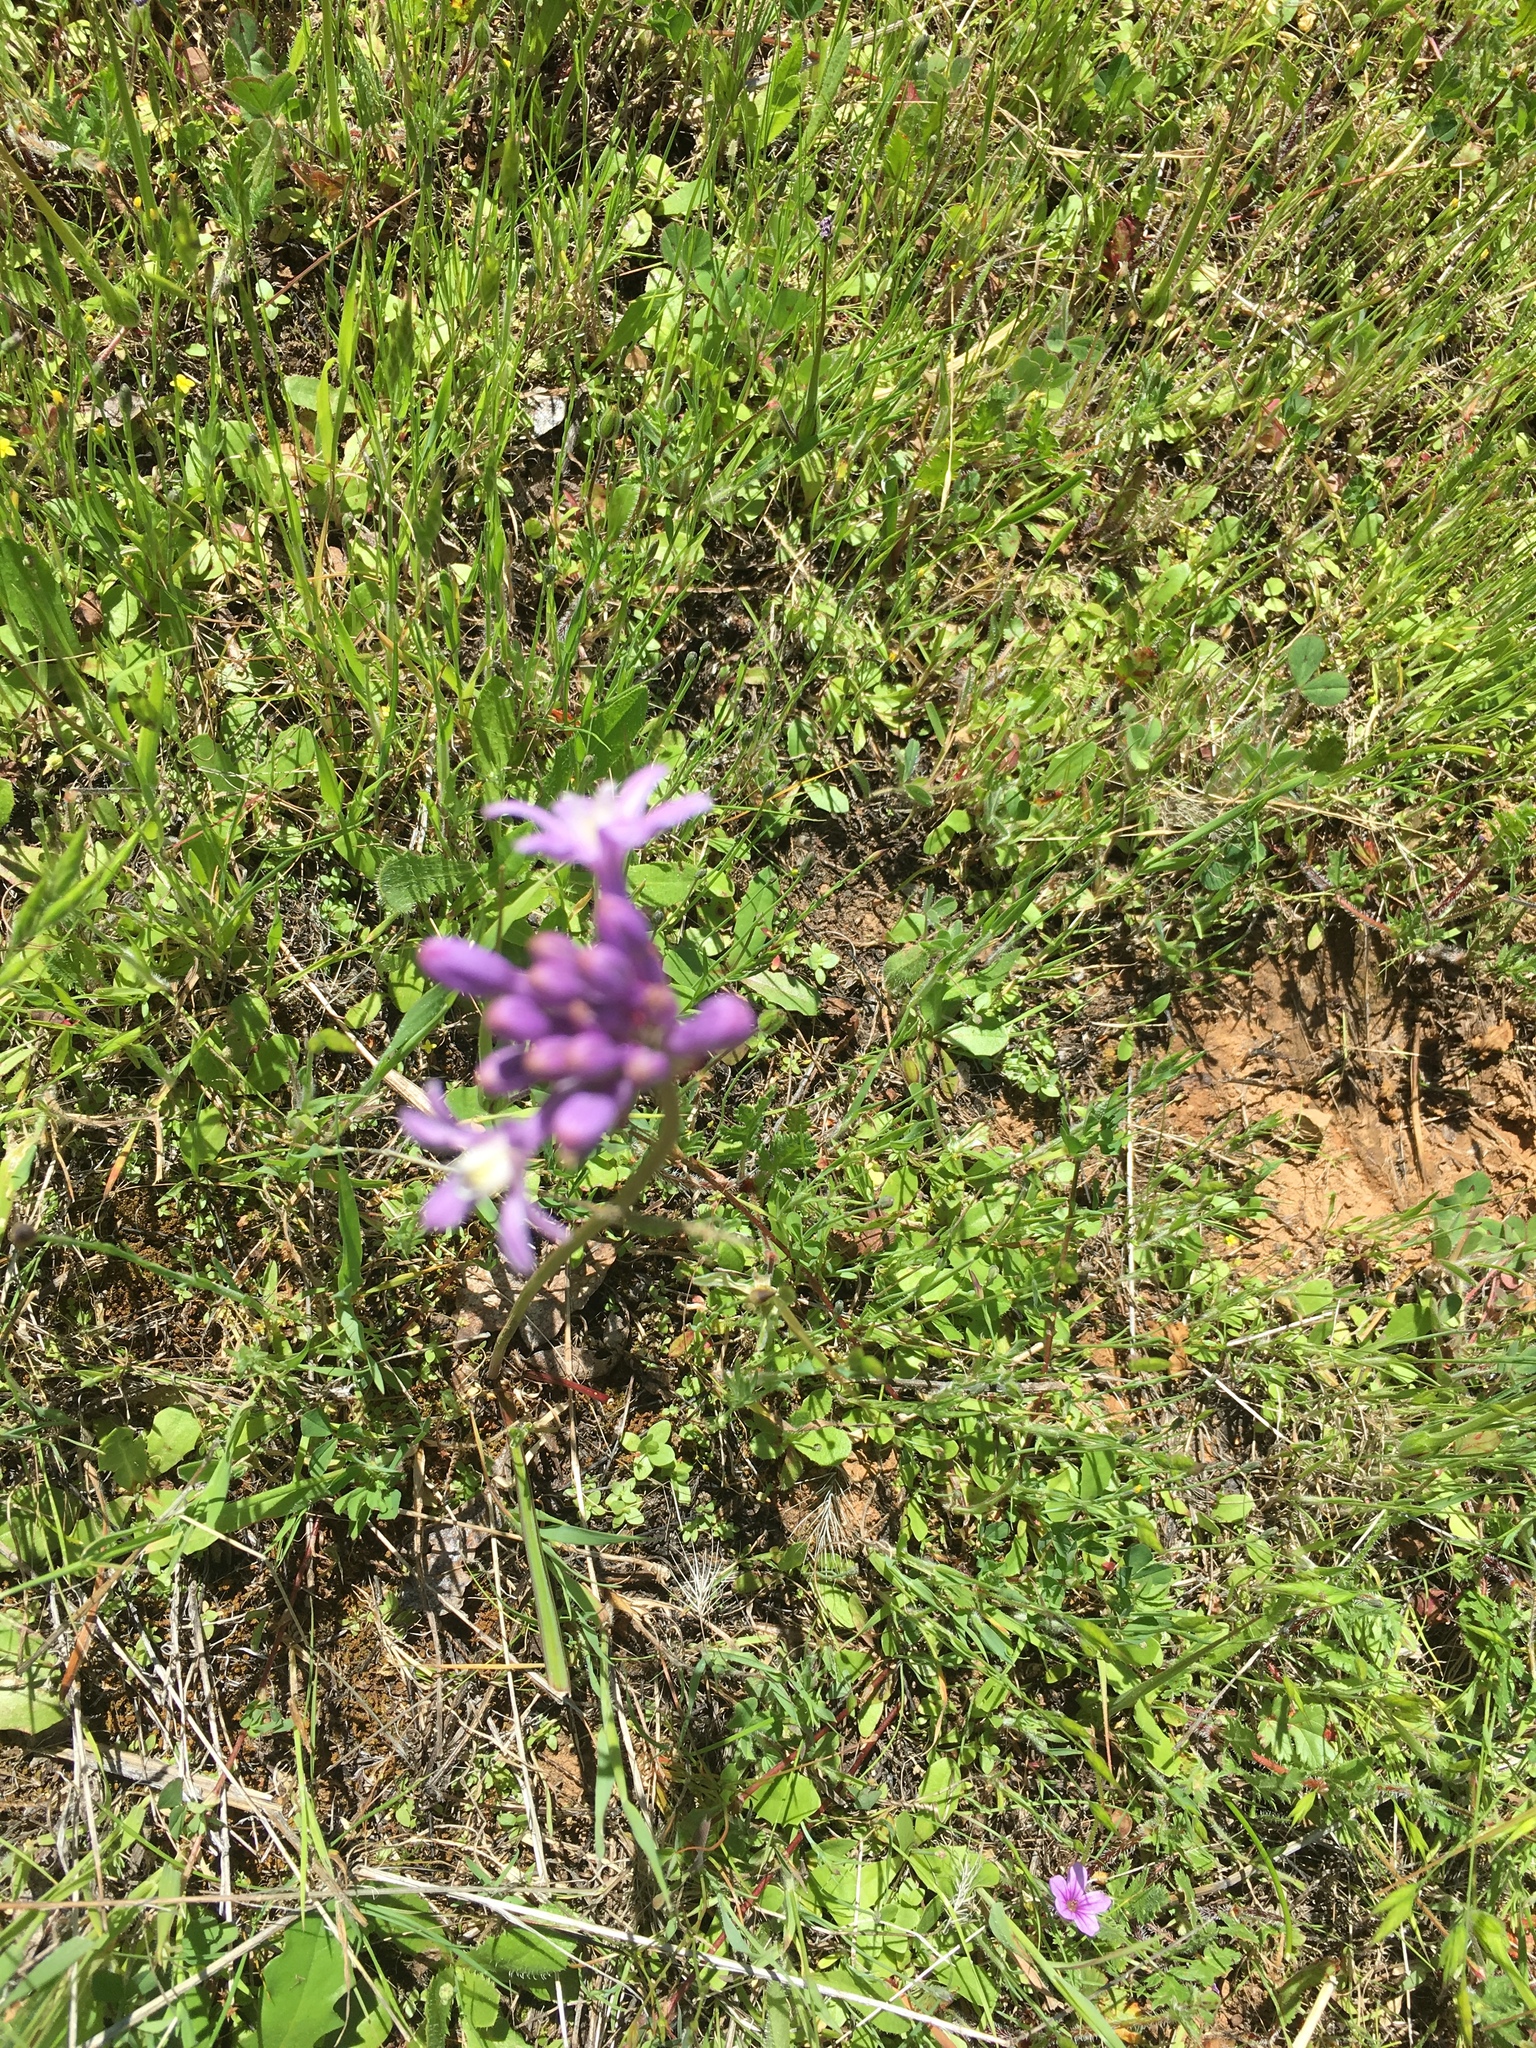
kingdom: Plantae
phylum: Tracheophyta
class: Liliopsida
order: Asparagales
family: Asparagaceae
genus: Dichelostemma
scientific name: Dichelostemma multiflorum
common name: Round-tooth ookow
